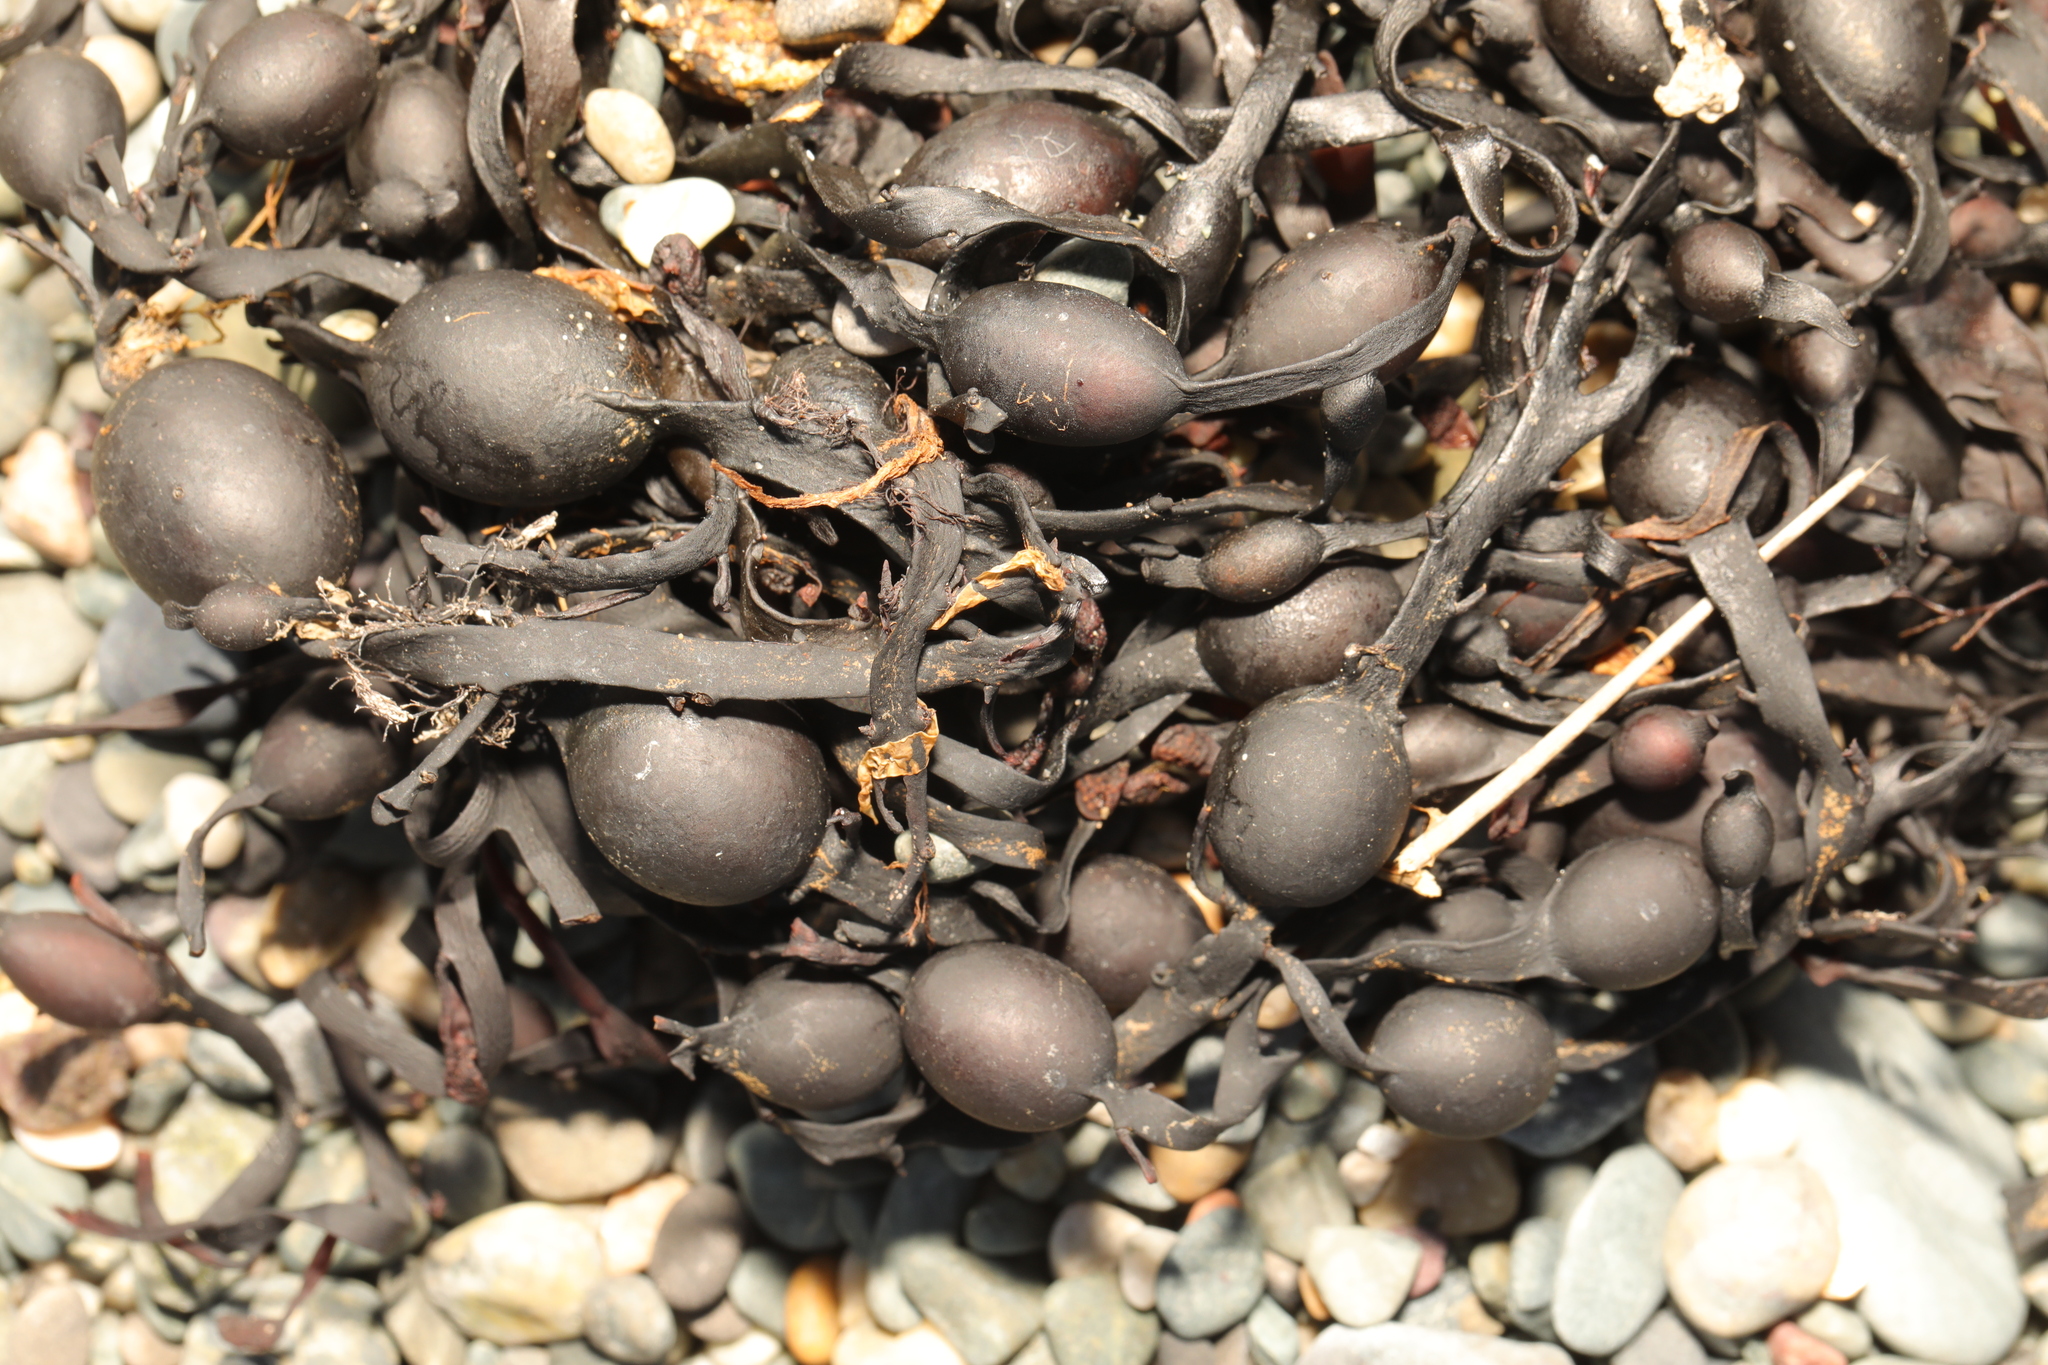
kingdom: Chromista
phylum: Ochrophyta
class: Phaeophyceae
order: Fucales
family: Fucaceae
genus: Ascophyllum
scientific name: Ascophyllum nodosum
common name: Knotted wrack
